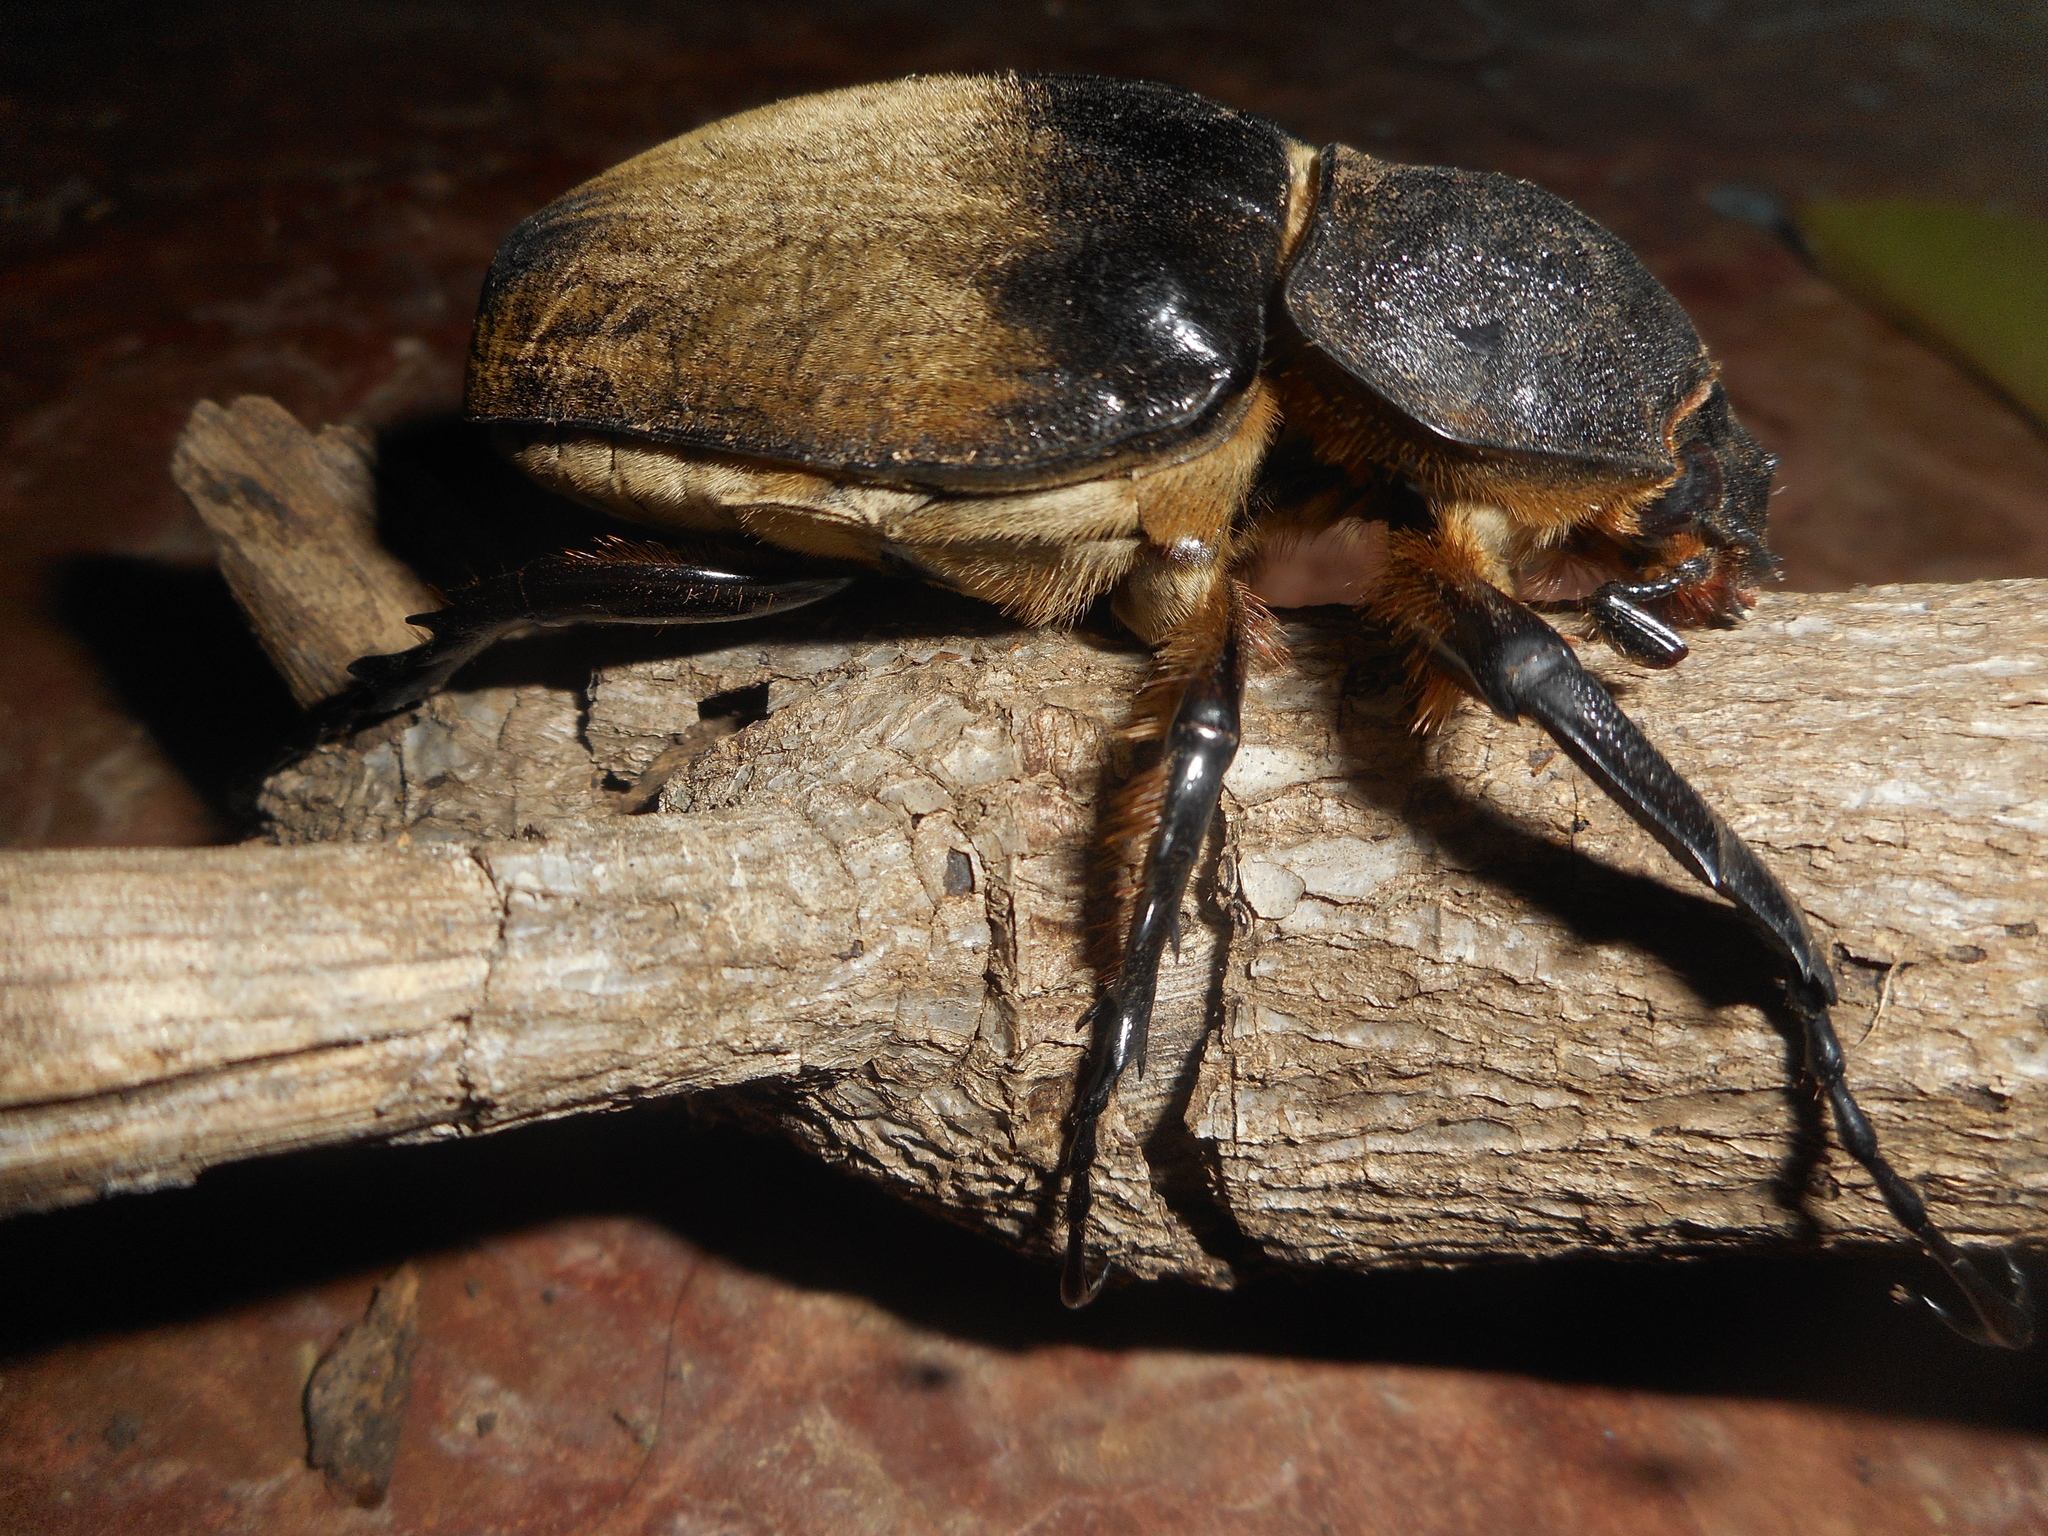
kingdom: Animalia
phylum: Arthropoda
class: Insecta
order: Coleoptera
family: Scarabaeidae
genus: Megasoma
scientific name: Megasoma elephas
